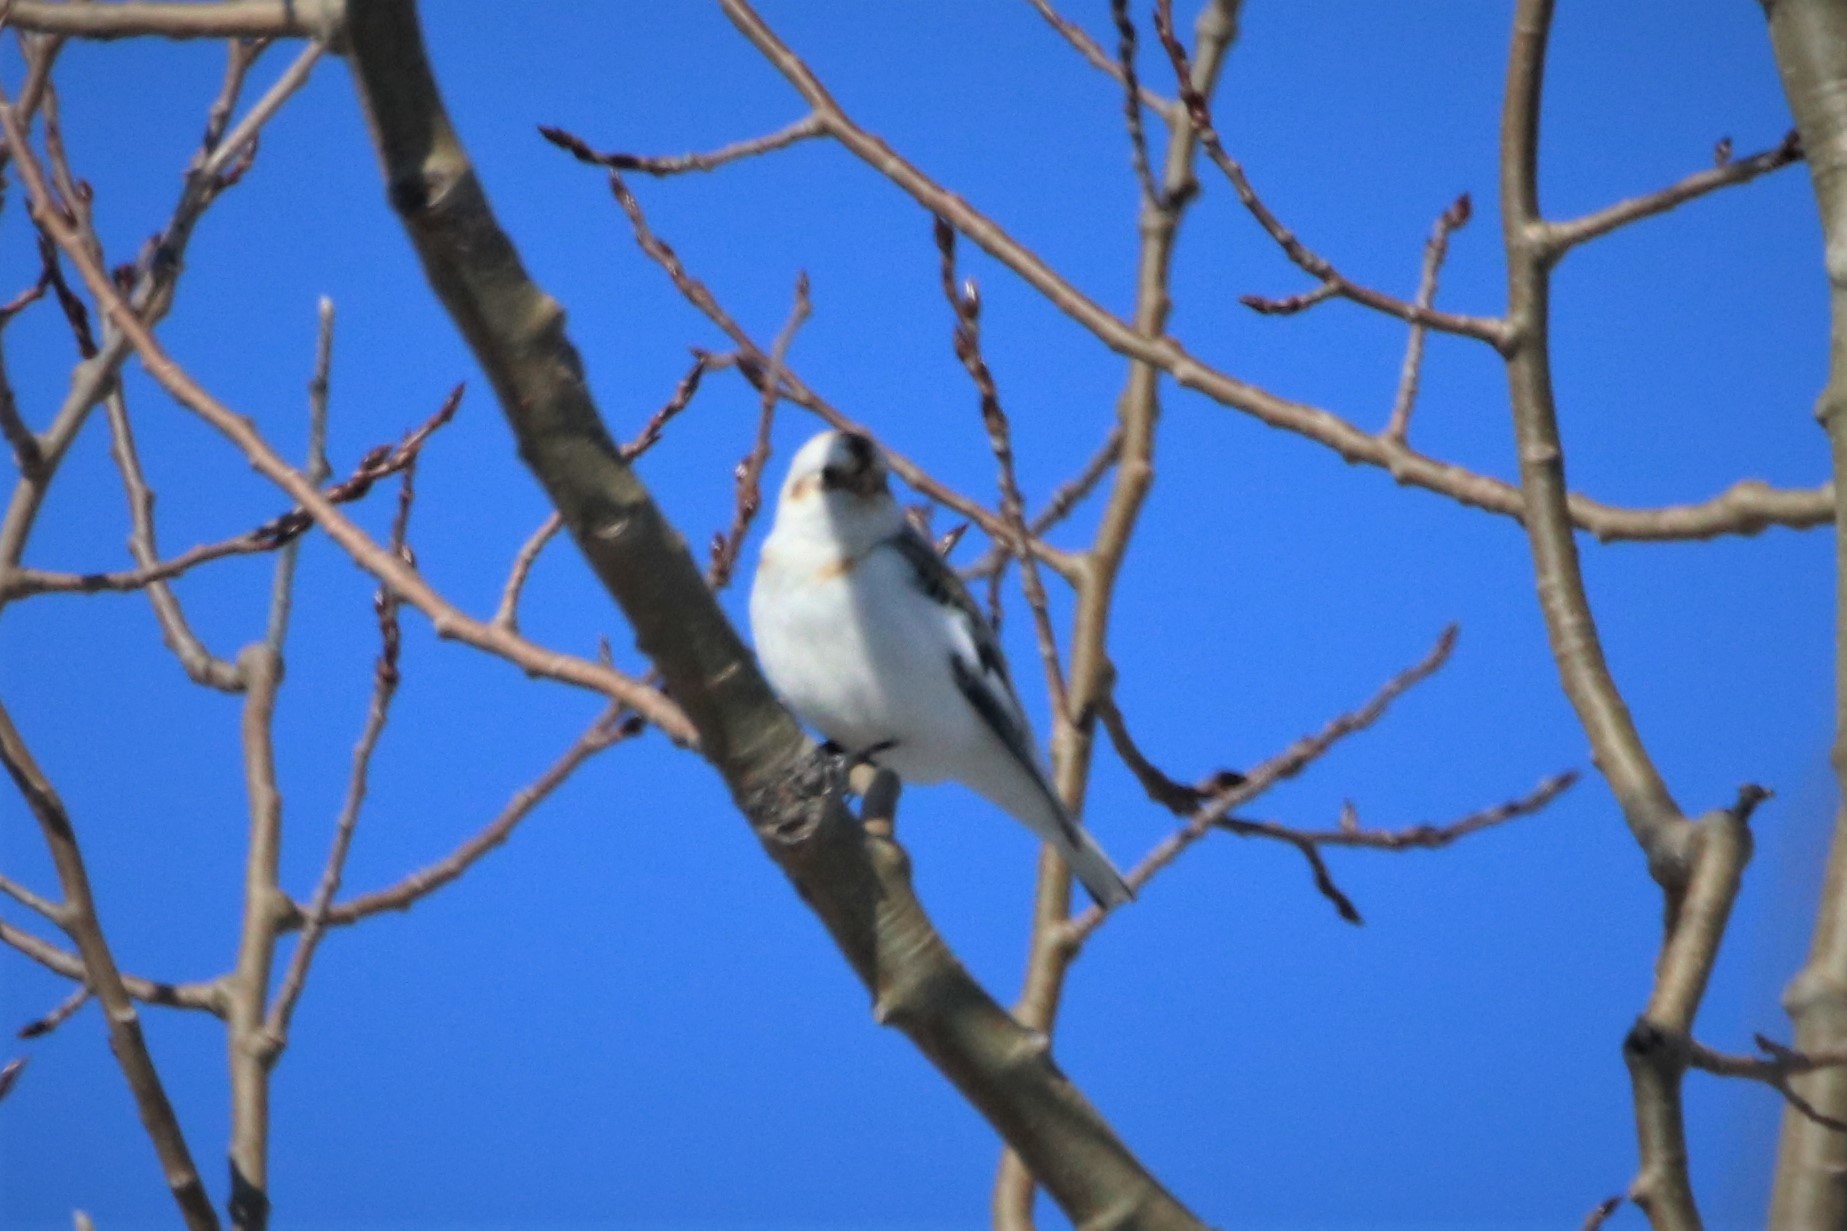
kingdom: Animalia
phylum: Chordata
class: Aves
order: Passeriformes
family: Calcariidae
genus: Plectrophenax
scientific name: Plectrophenax nivalis
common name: Snow bunting
